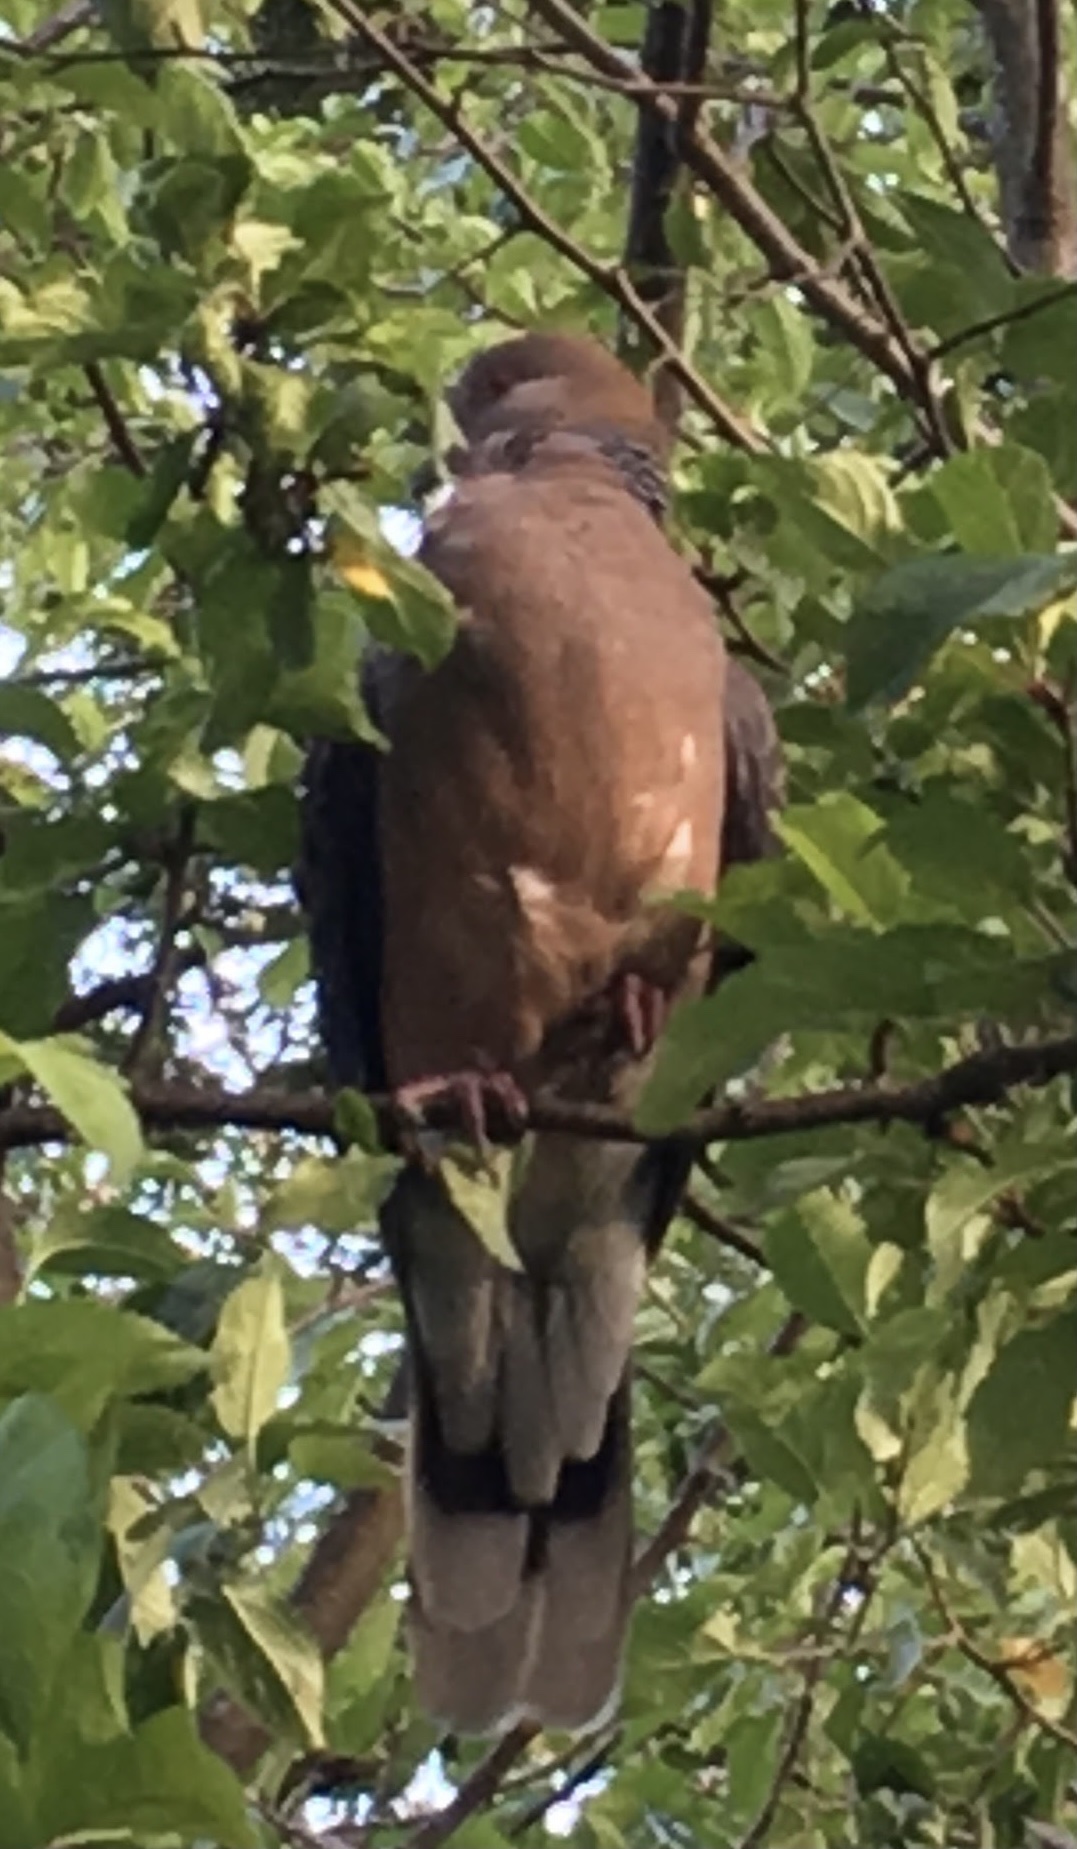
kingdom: Animalia
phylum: Chordata
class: Aves
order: Columbiformes
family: Columbidae
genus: Streptopelia
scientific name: Streptopelia orientalis
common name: Oriental turtle dove
